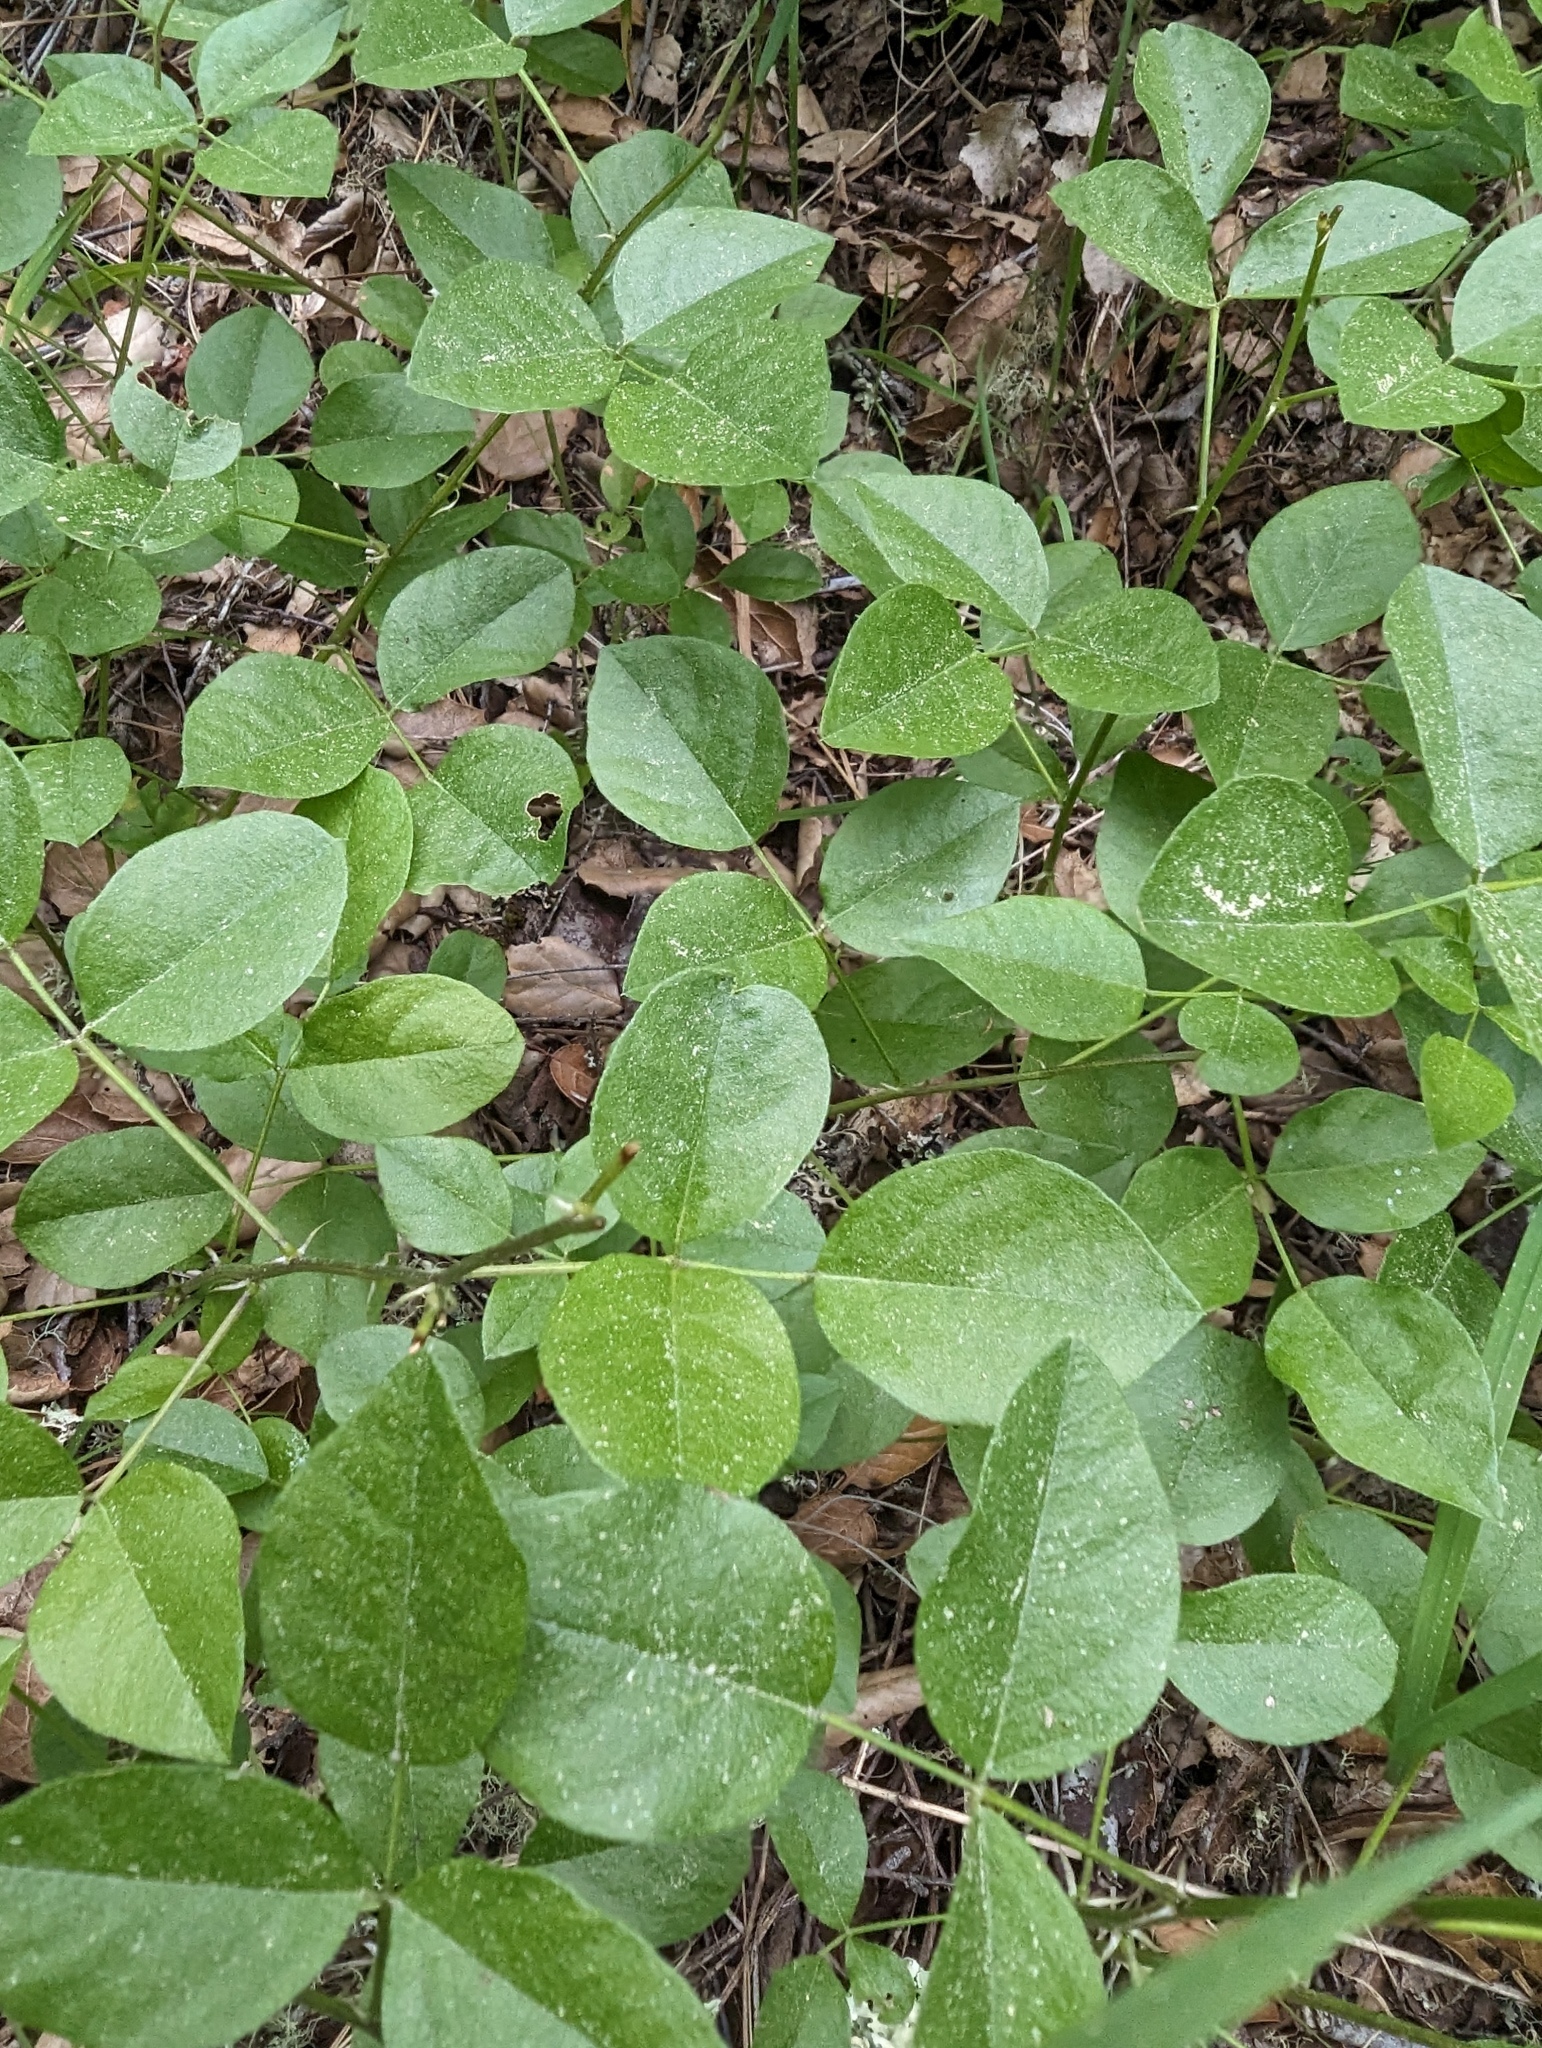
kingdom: Plantae
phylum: Tracheophyta
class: Magnoliopsida
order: Fabales
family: Fabaceae
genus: Rupertia
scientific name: Rupertia physodes
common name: California-tea
